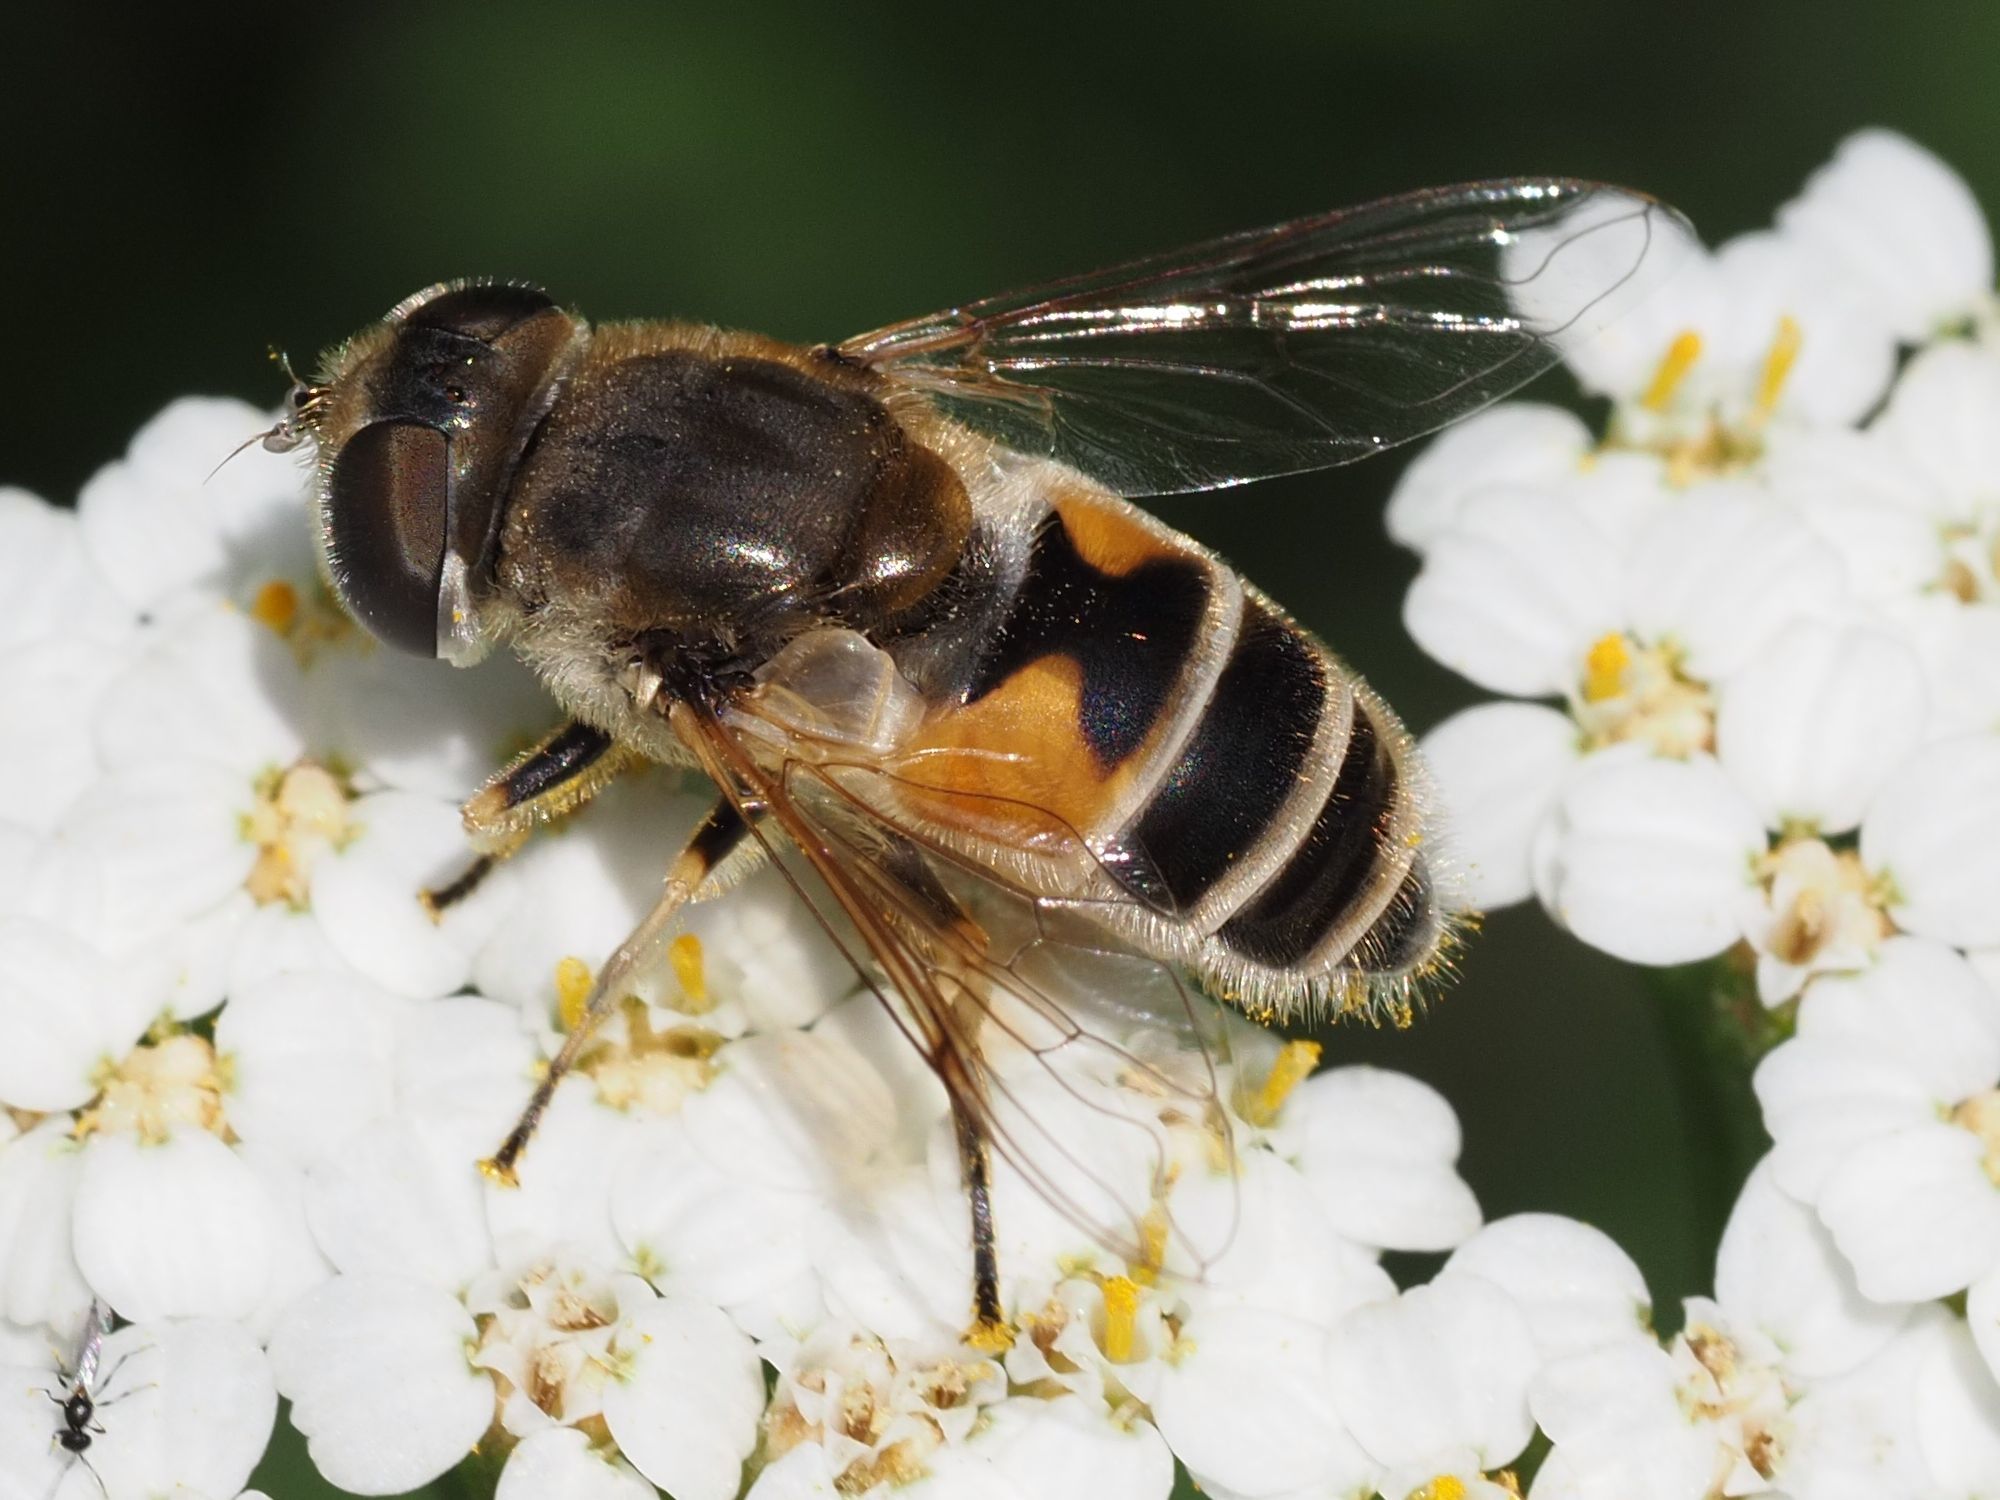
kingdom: Animalia
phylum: Arthropoda
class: Insecta
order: Diptera
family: Syrphidae
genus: Eristalis
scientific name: Eristalis arbustorum
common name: Hover fly
